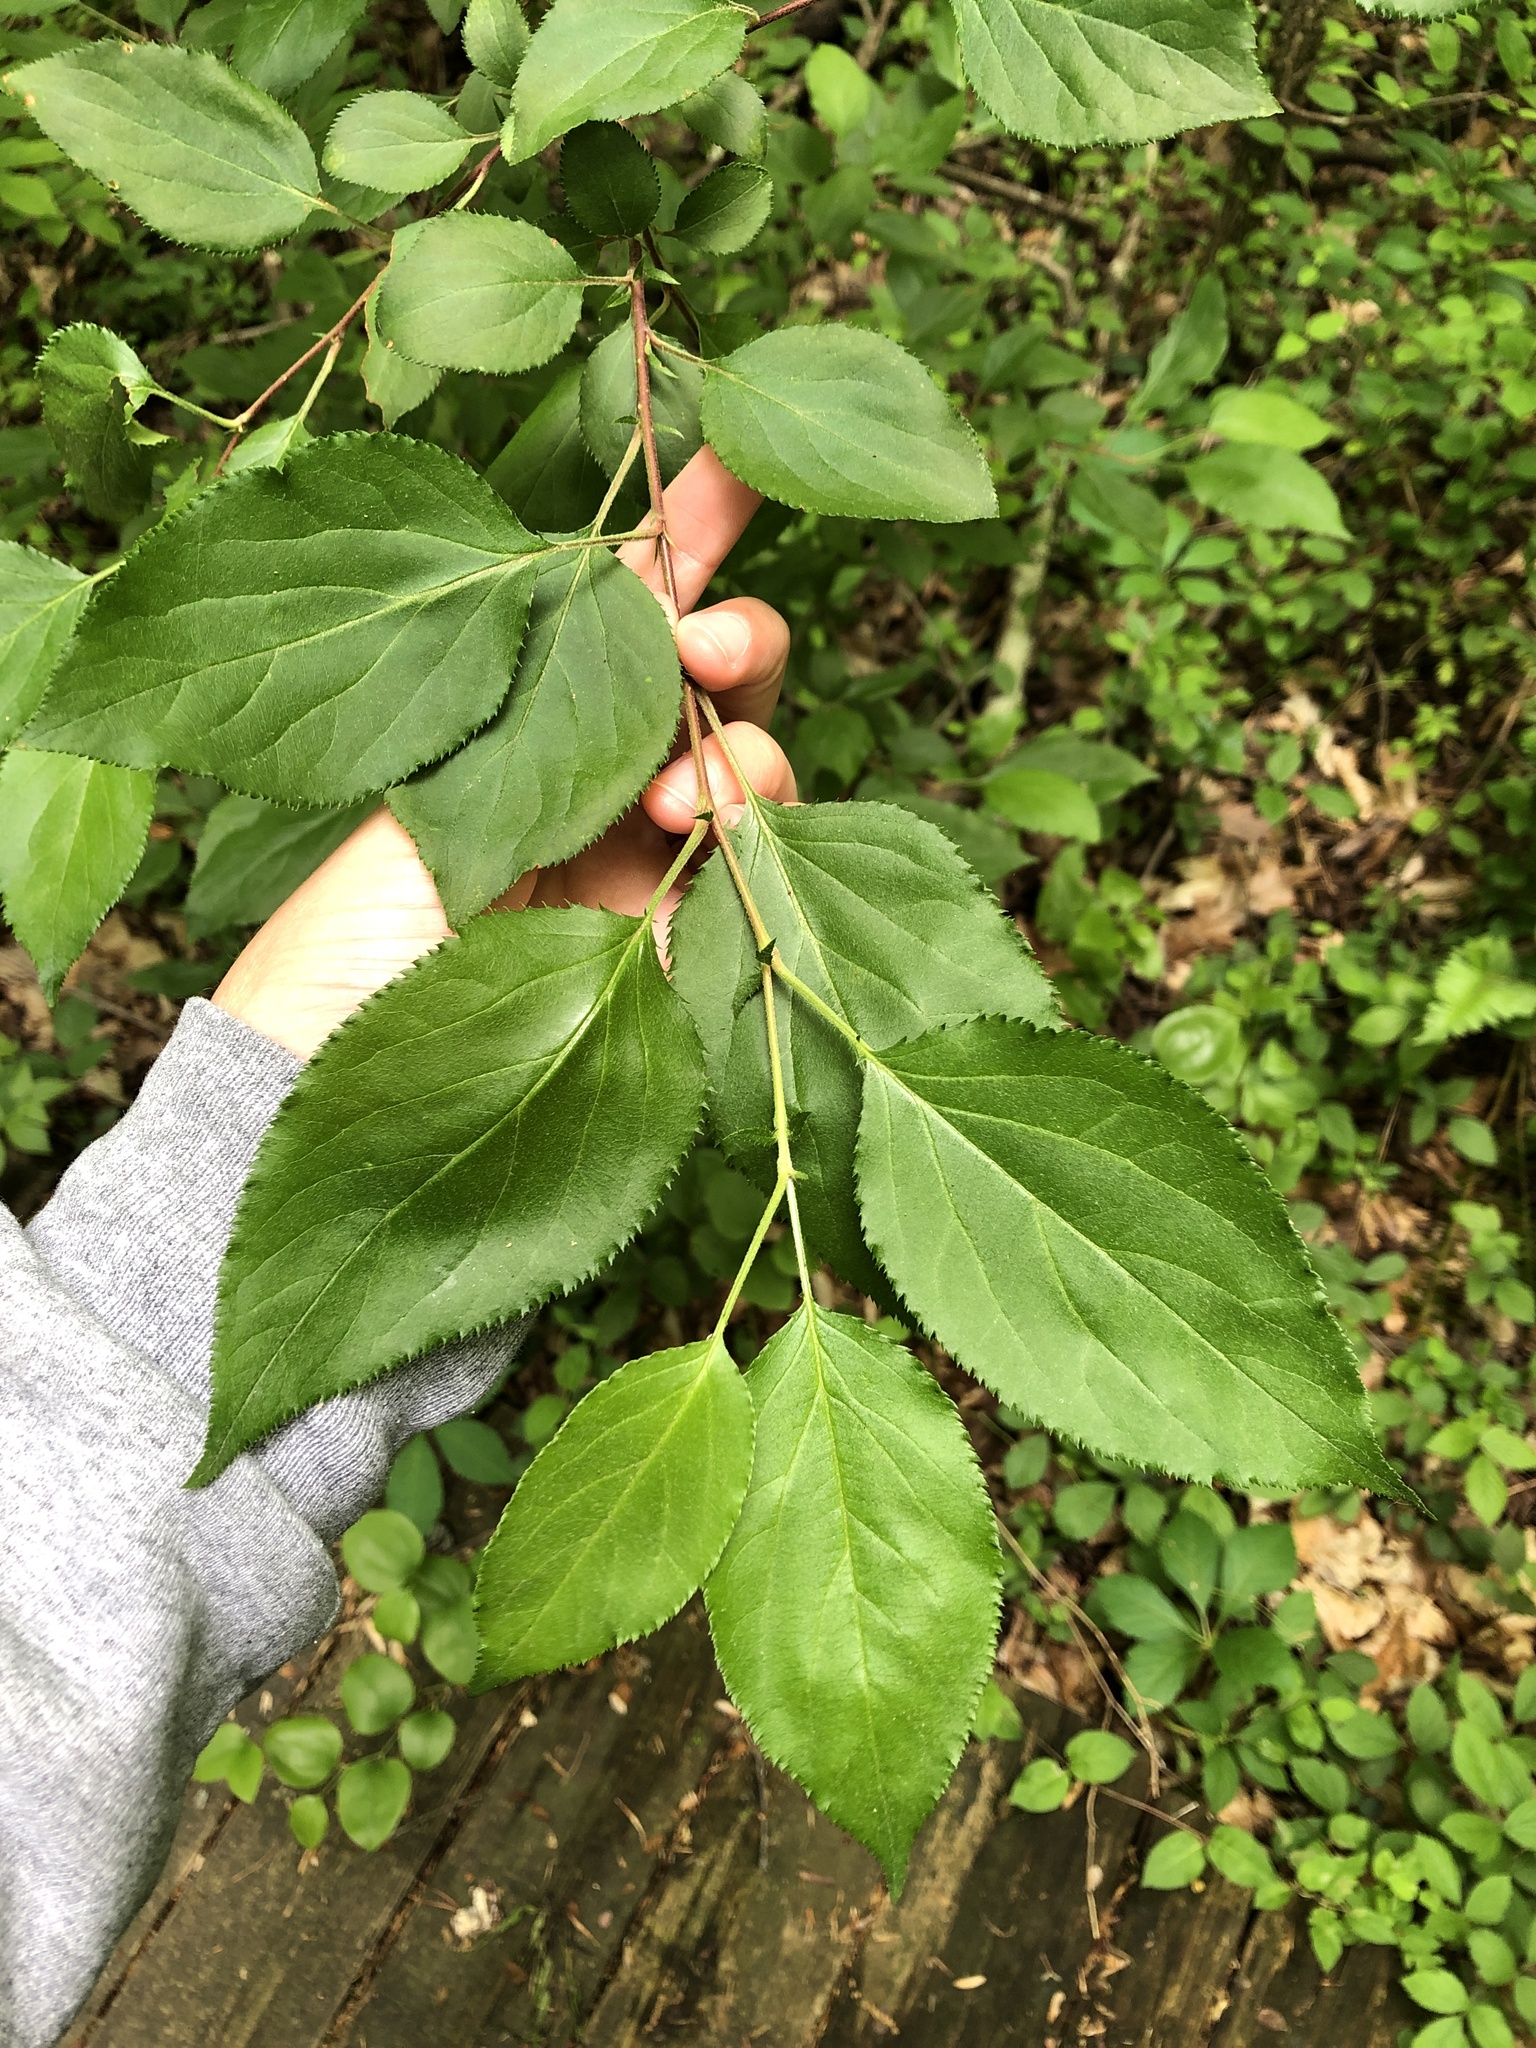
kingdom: Plantae
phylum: Tracheophyta
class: Magnoliopsida
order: Rosales
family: Rhamnaceae
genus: Rhamnus
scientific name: Rhamnus cathartica
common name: Common buckthorn
